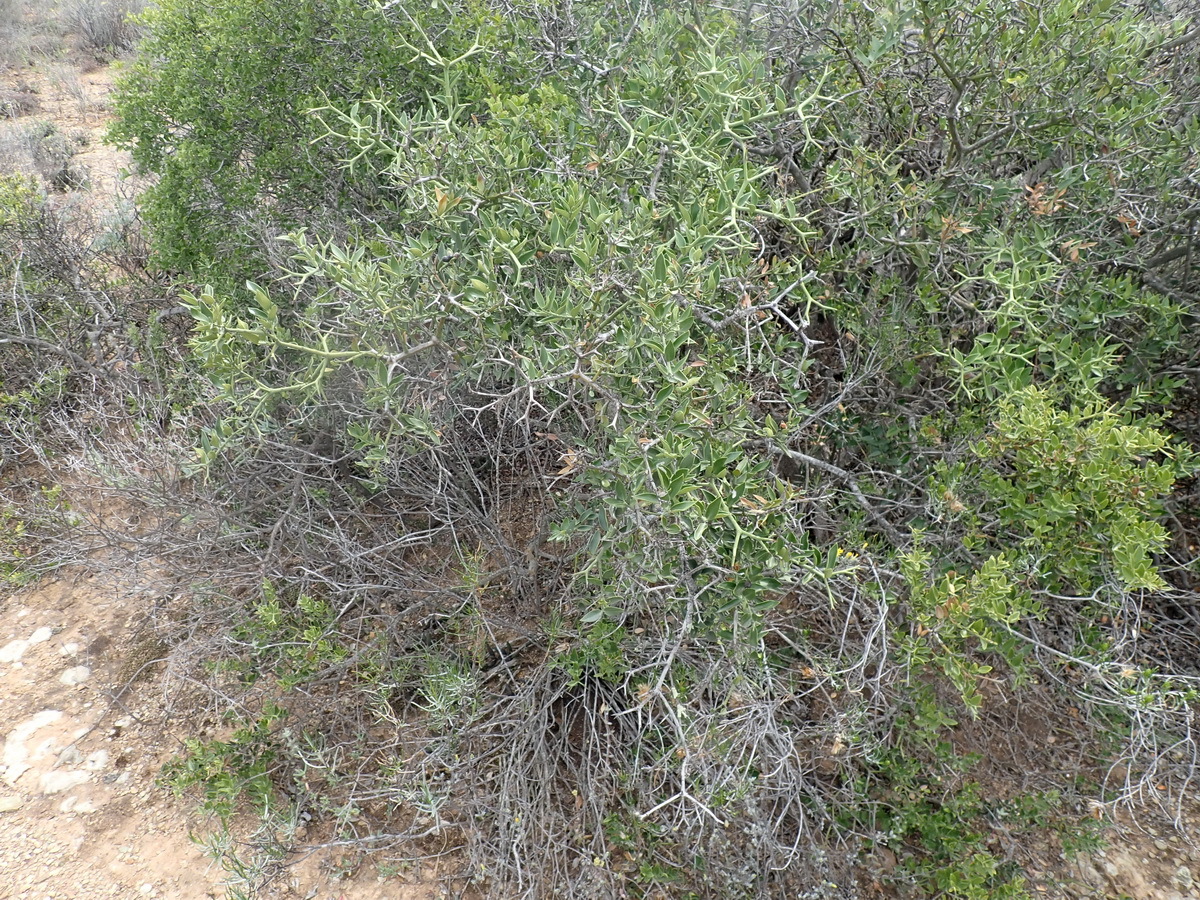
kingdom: Plantae
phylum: Tracheophyta
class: Magnoliopsida
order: Gentianales
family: Apocynaceae
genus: Carissa
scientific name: Carissa haematocarpa
